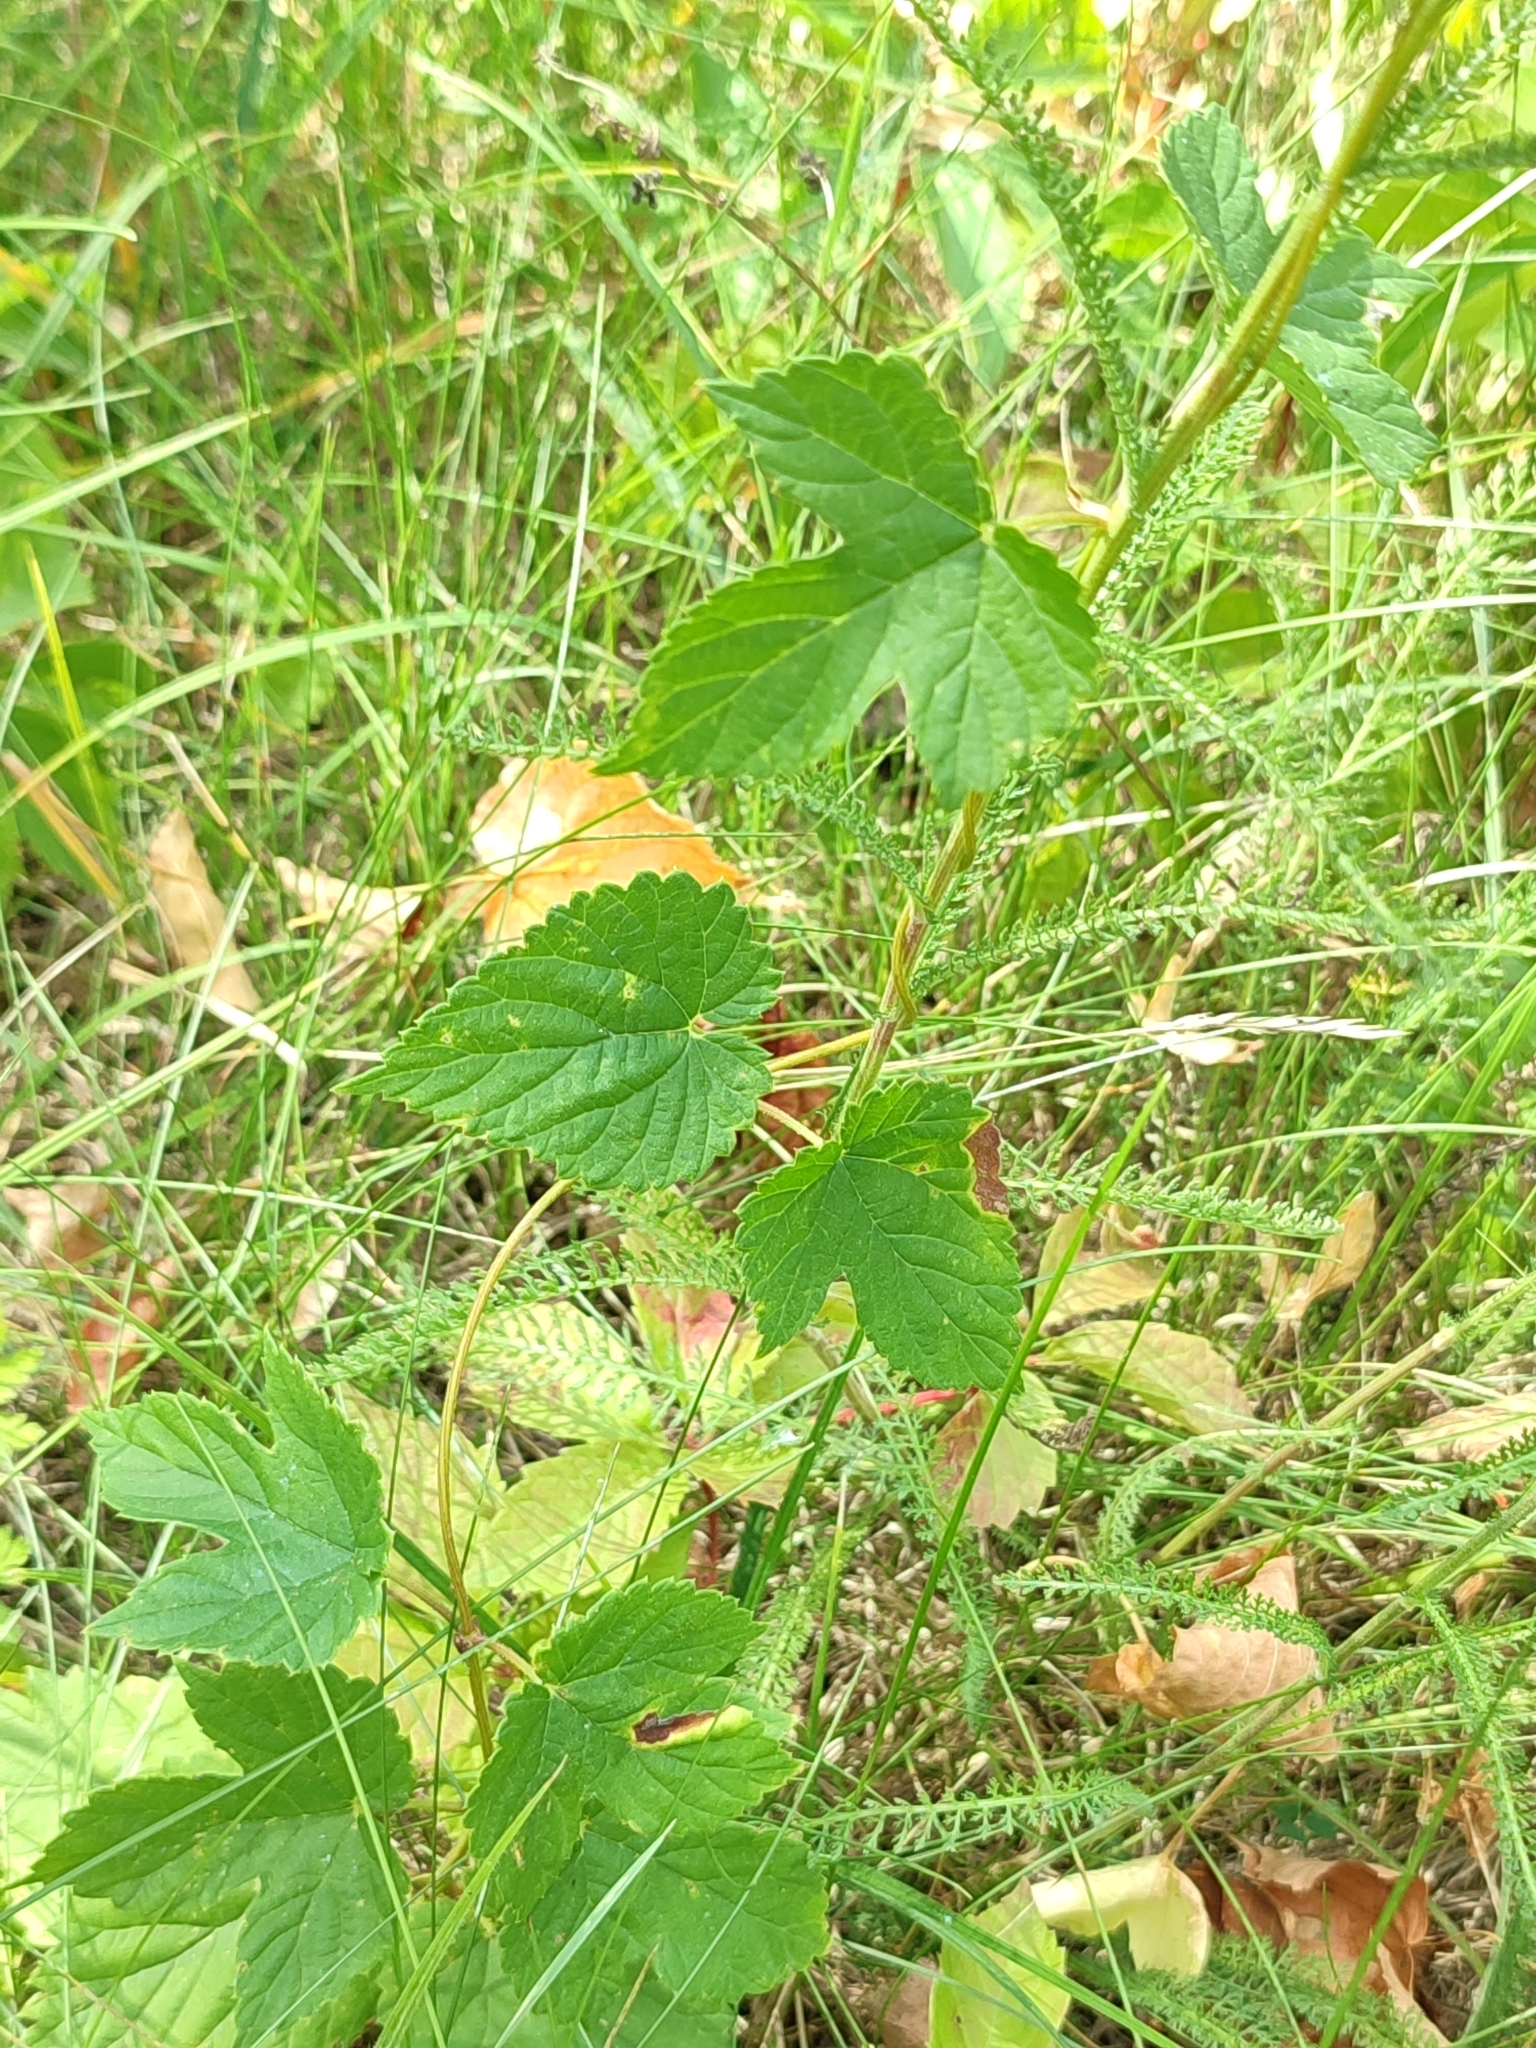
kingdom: Plantae
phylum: Tracheophyta
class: Magnoliopsida
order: Rosales
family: Cannabaceae
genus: Humulus
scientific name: Humulus lupulus
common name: Hop
